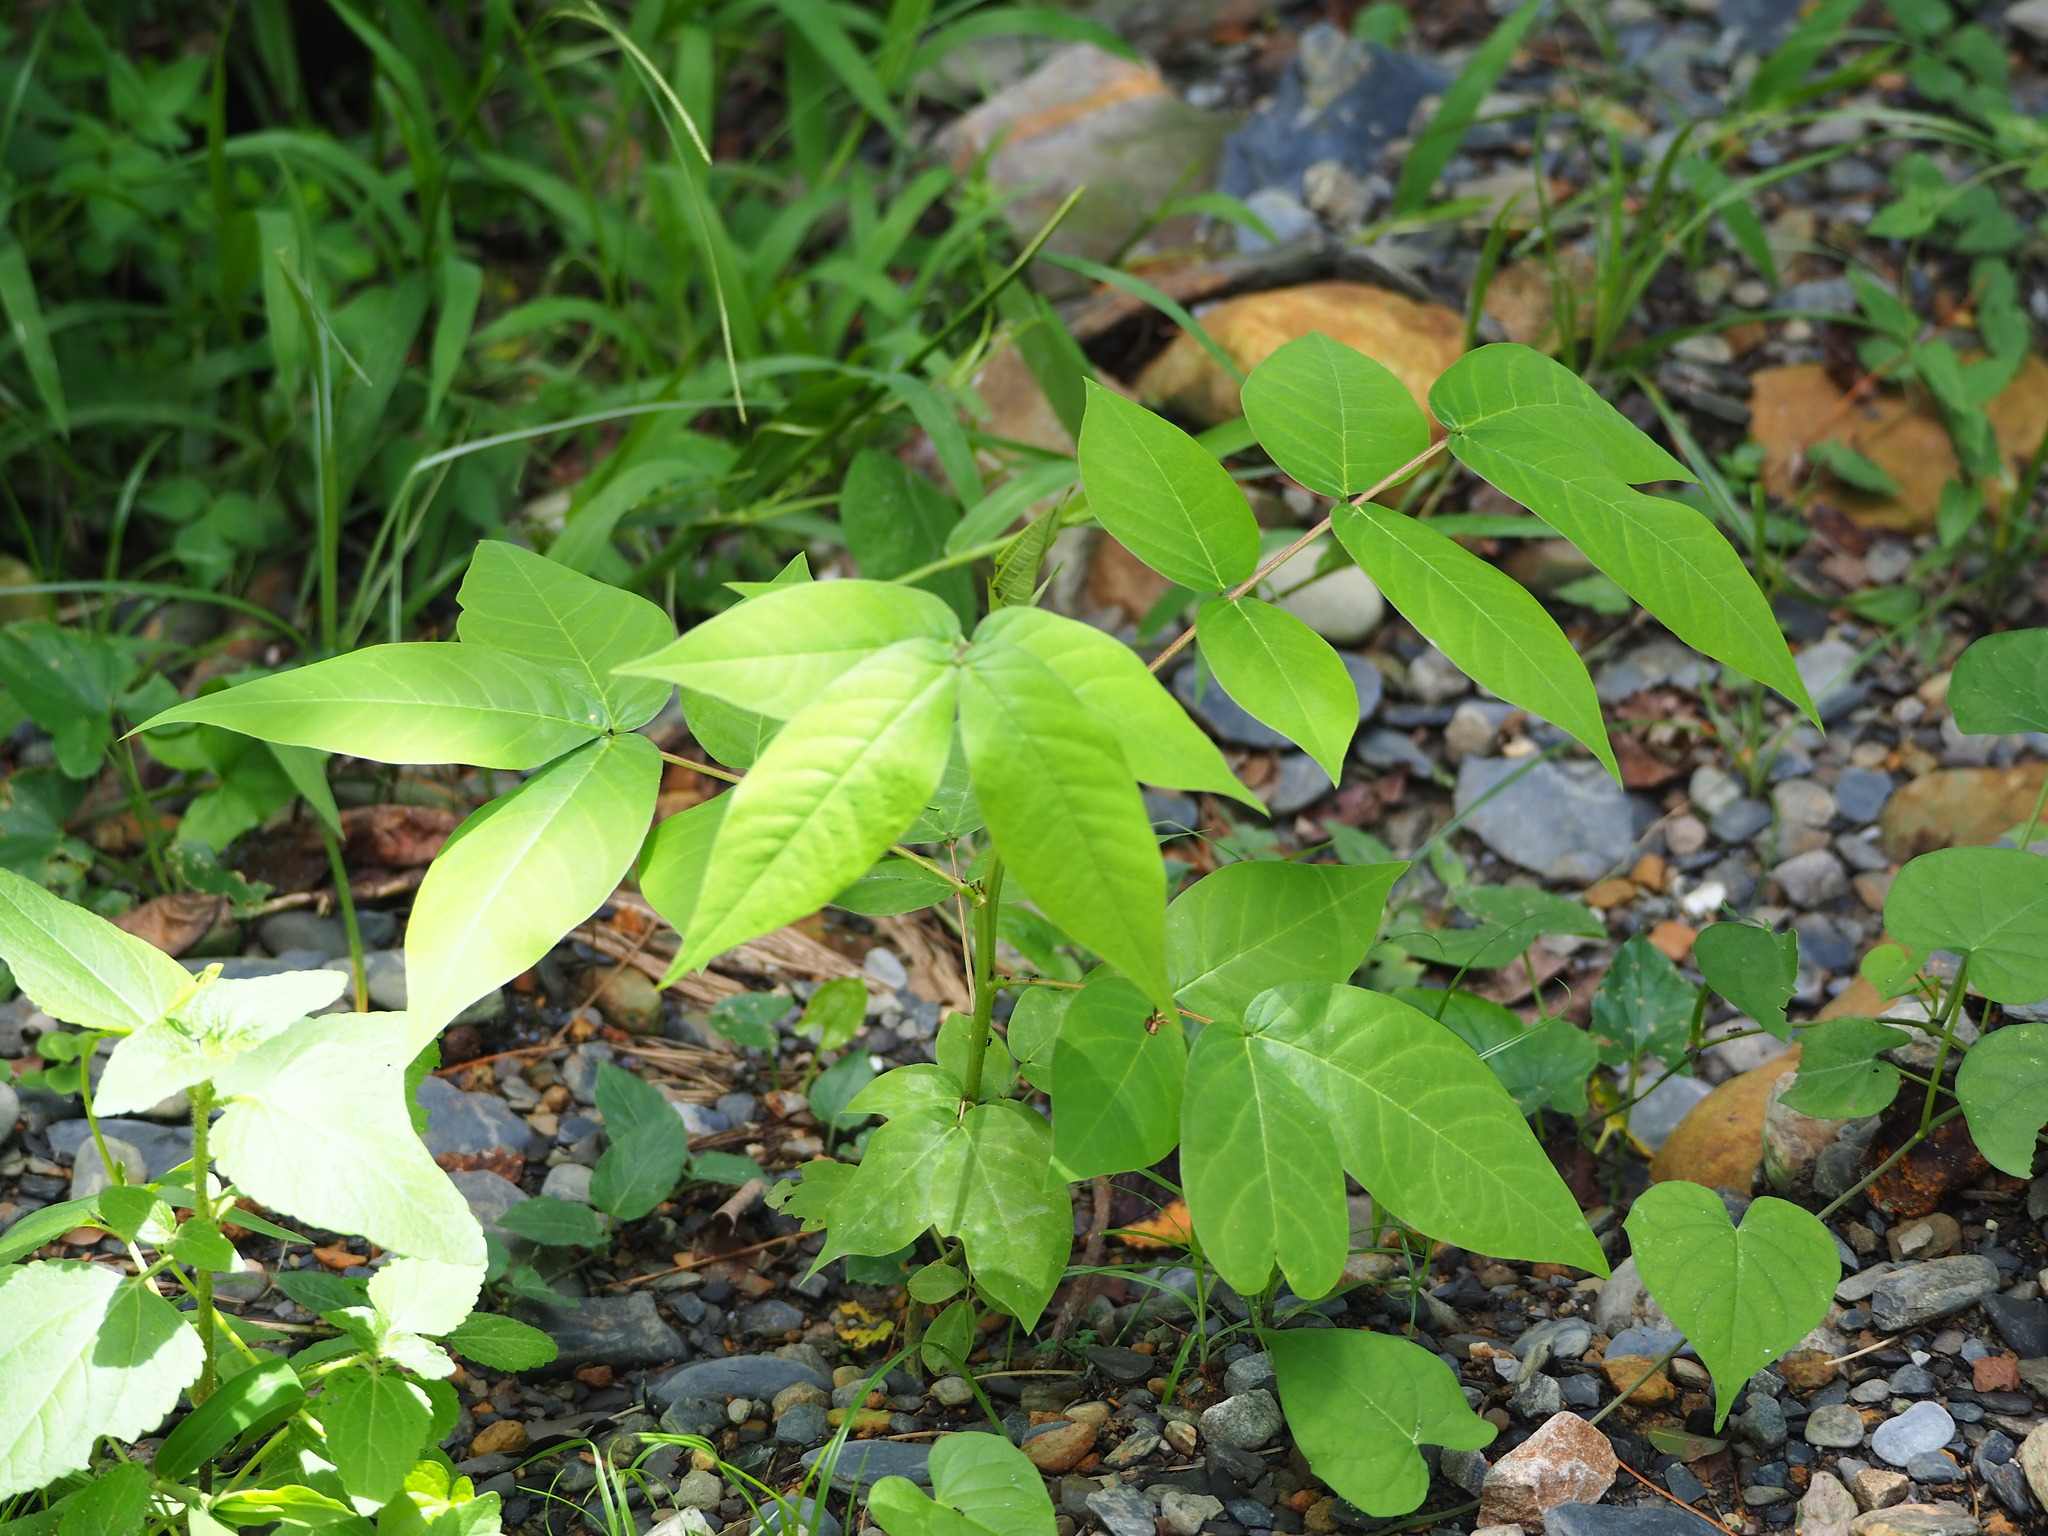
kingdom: Plantae
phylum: Tracheophyta
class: Magnoliopsida
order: Fabales
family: Fabaceae
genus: Senna
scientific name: Senna occidentalis
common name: Septicweed
